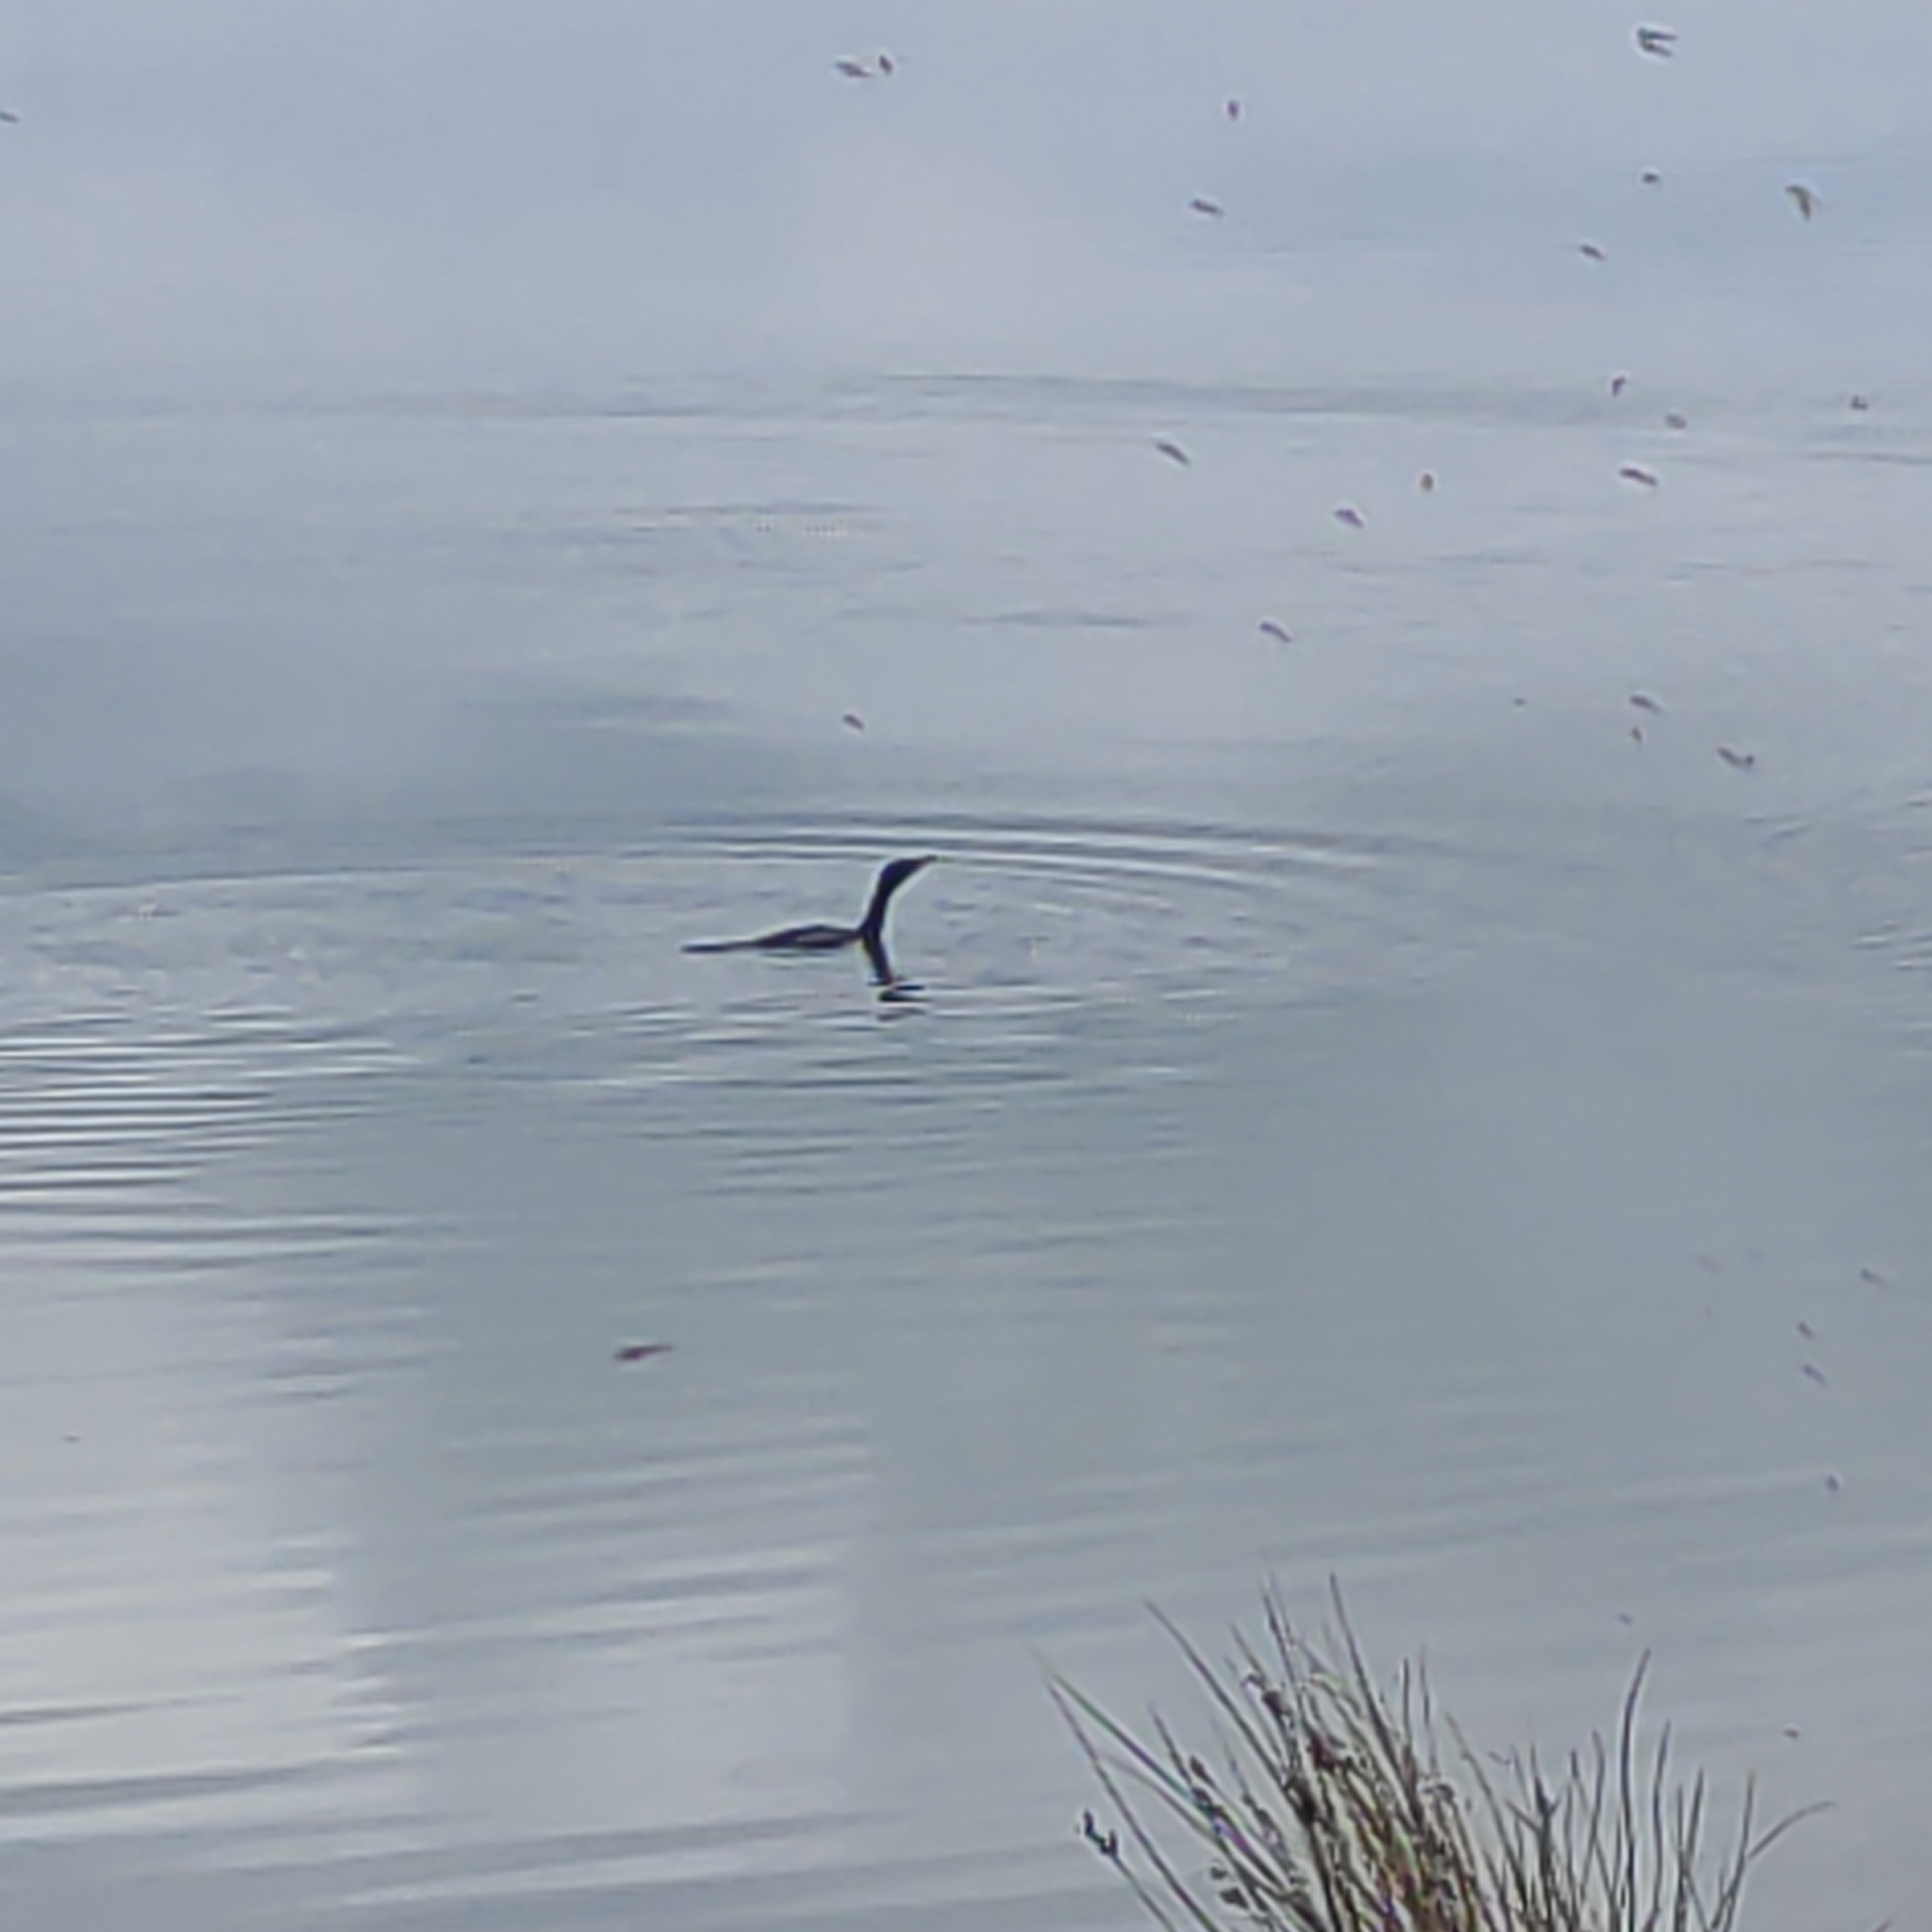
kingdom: Animalia
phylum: Chordata
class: Aves
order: Suliformes
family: Phalacrocoracidae
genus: Microcarbo
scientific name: Microcarbo melanoleucos
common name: Little pied cormorant
